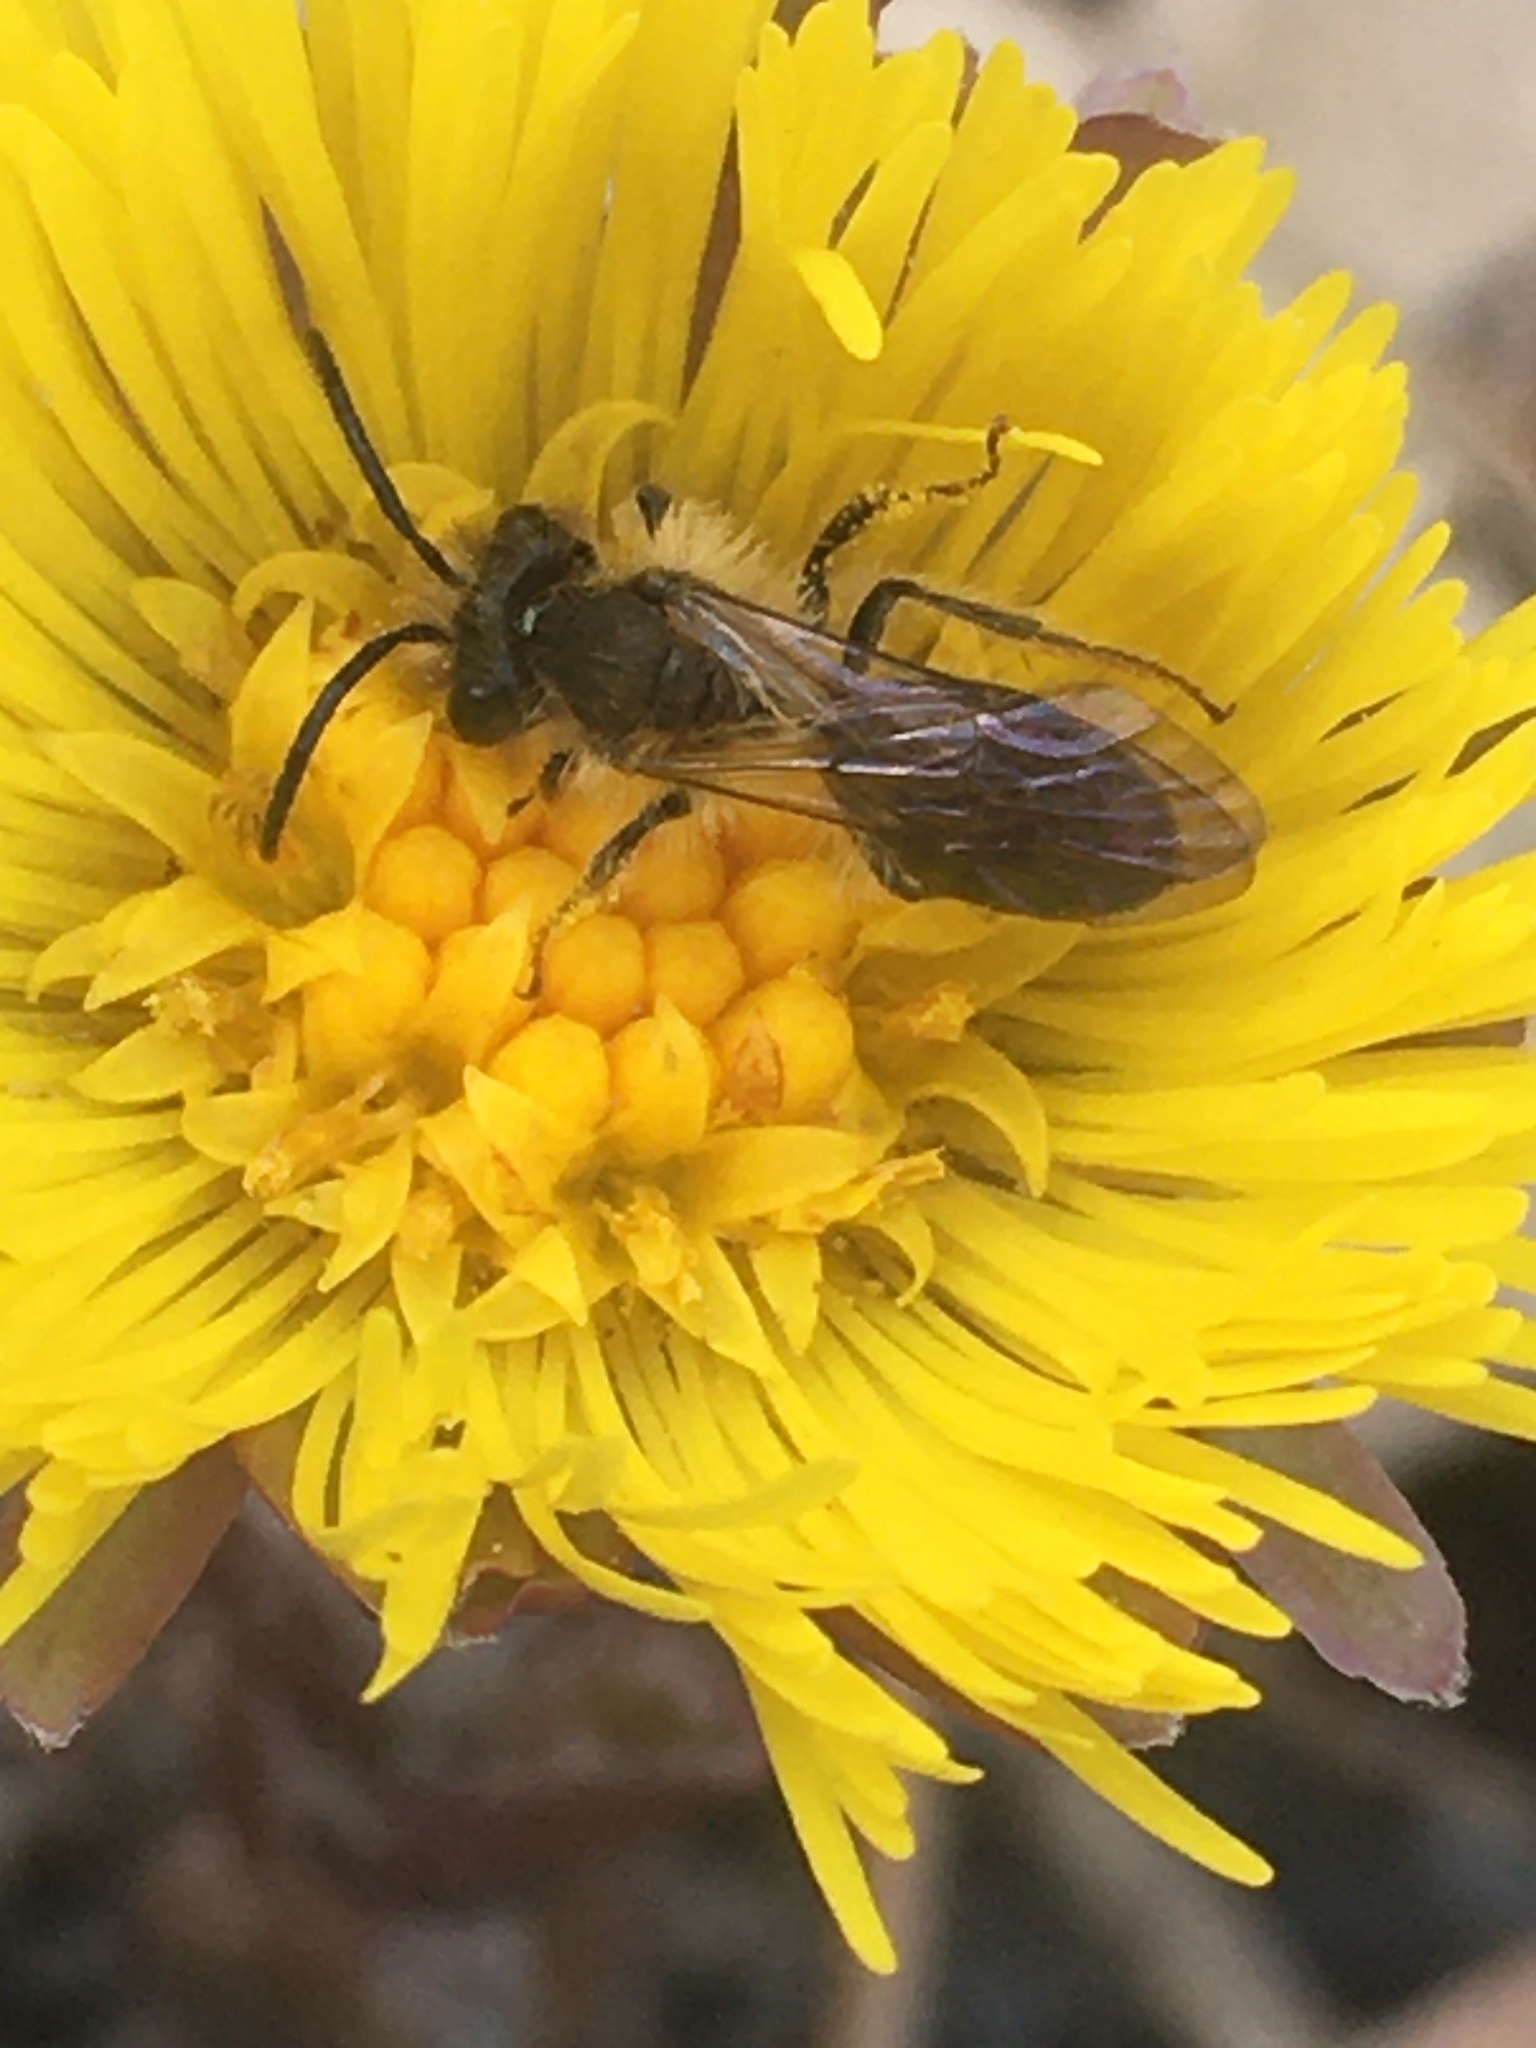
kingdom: Animalia
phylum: Arthropoda
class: Insecta
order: Hymenoptera
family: Andrenidae
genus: Andrena
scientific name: Andrena
